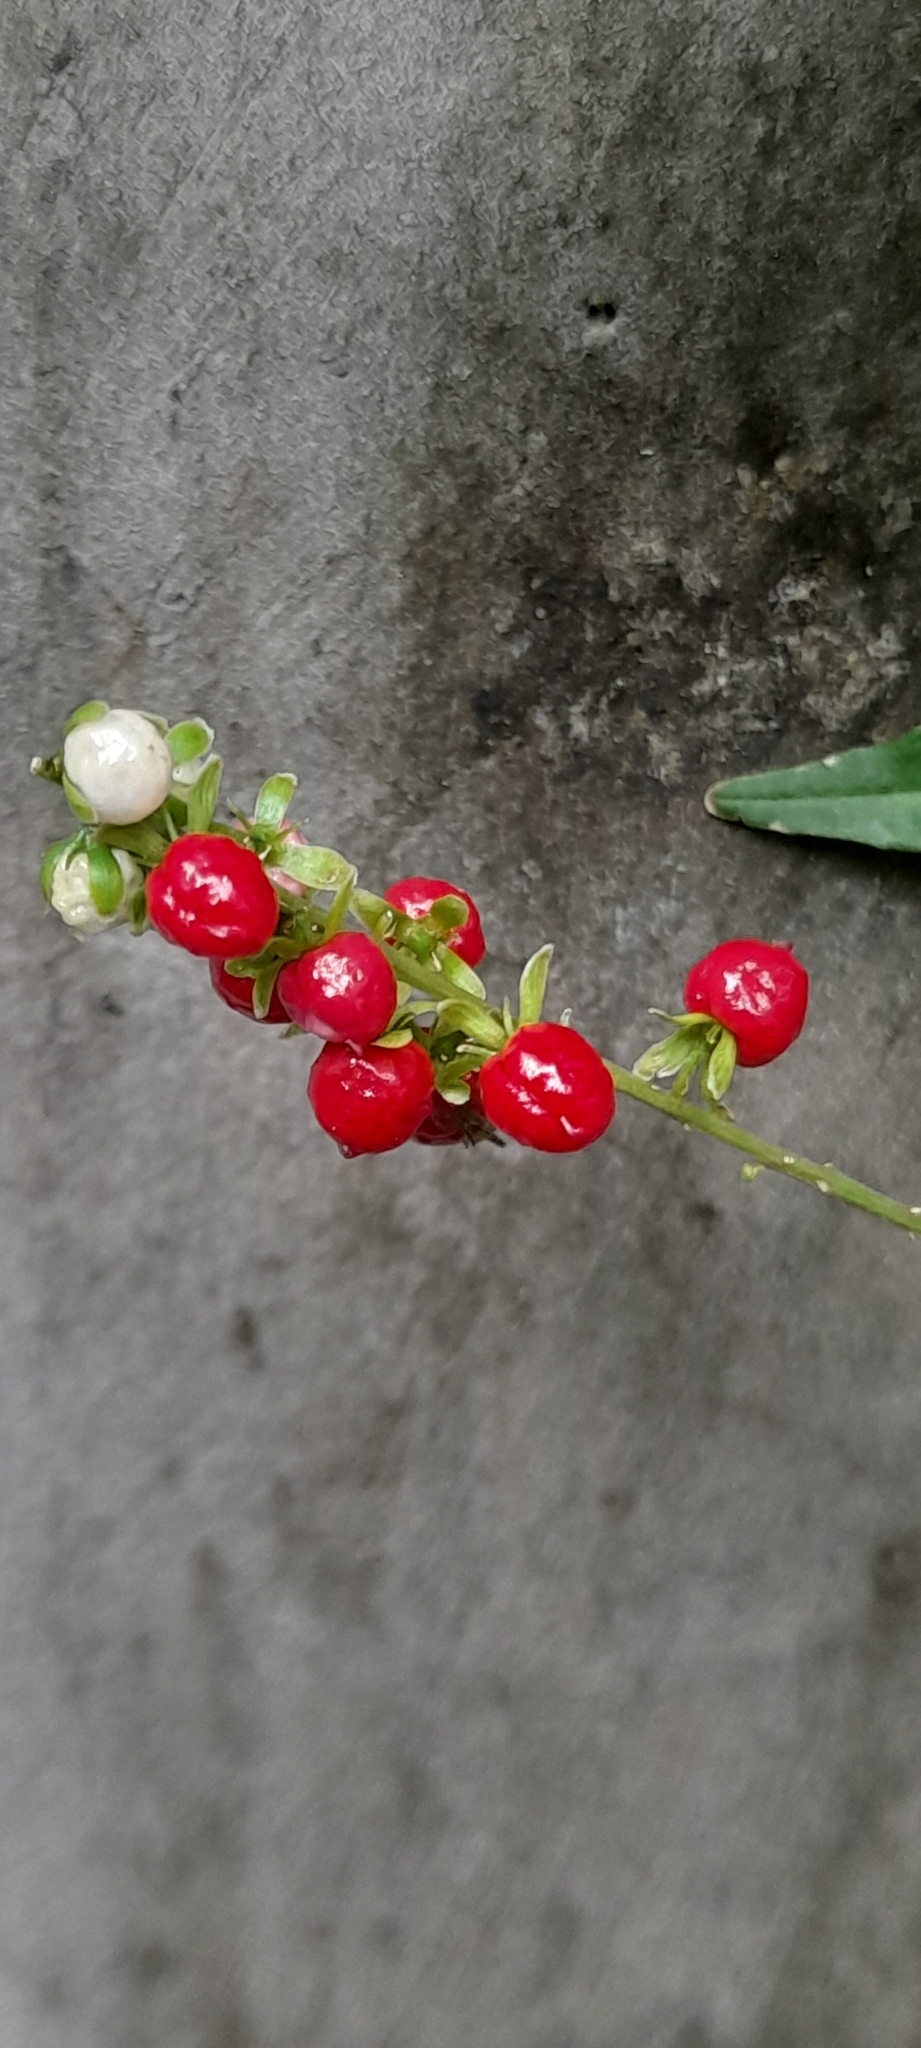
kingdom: Plantae
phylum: Tracheophyta
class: Magnoliopsida
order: Caryophyllales
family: Phytolaccaceae
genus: Rivina
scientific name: Rivina humilis
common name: Rougeplant
